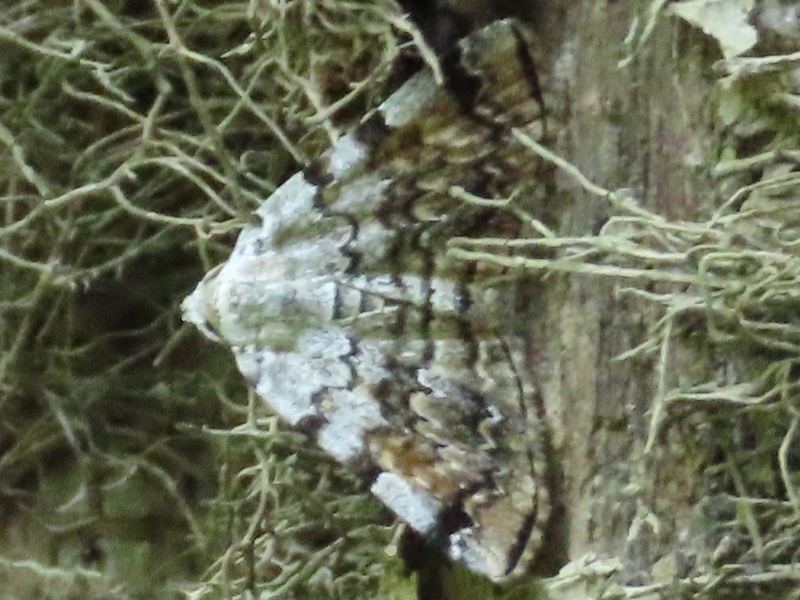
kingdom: Animalia
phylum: Arthropoda
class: Insecta
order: Lepidoptera
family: Erebidae
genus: Idia
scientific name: Idia americalis
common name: American idia moth
